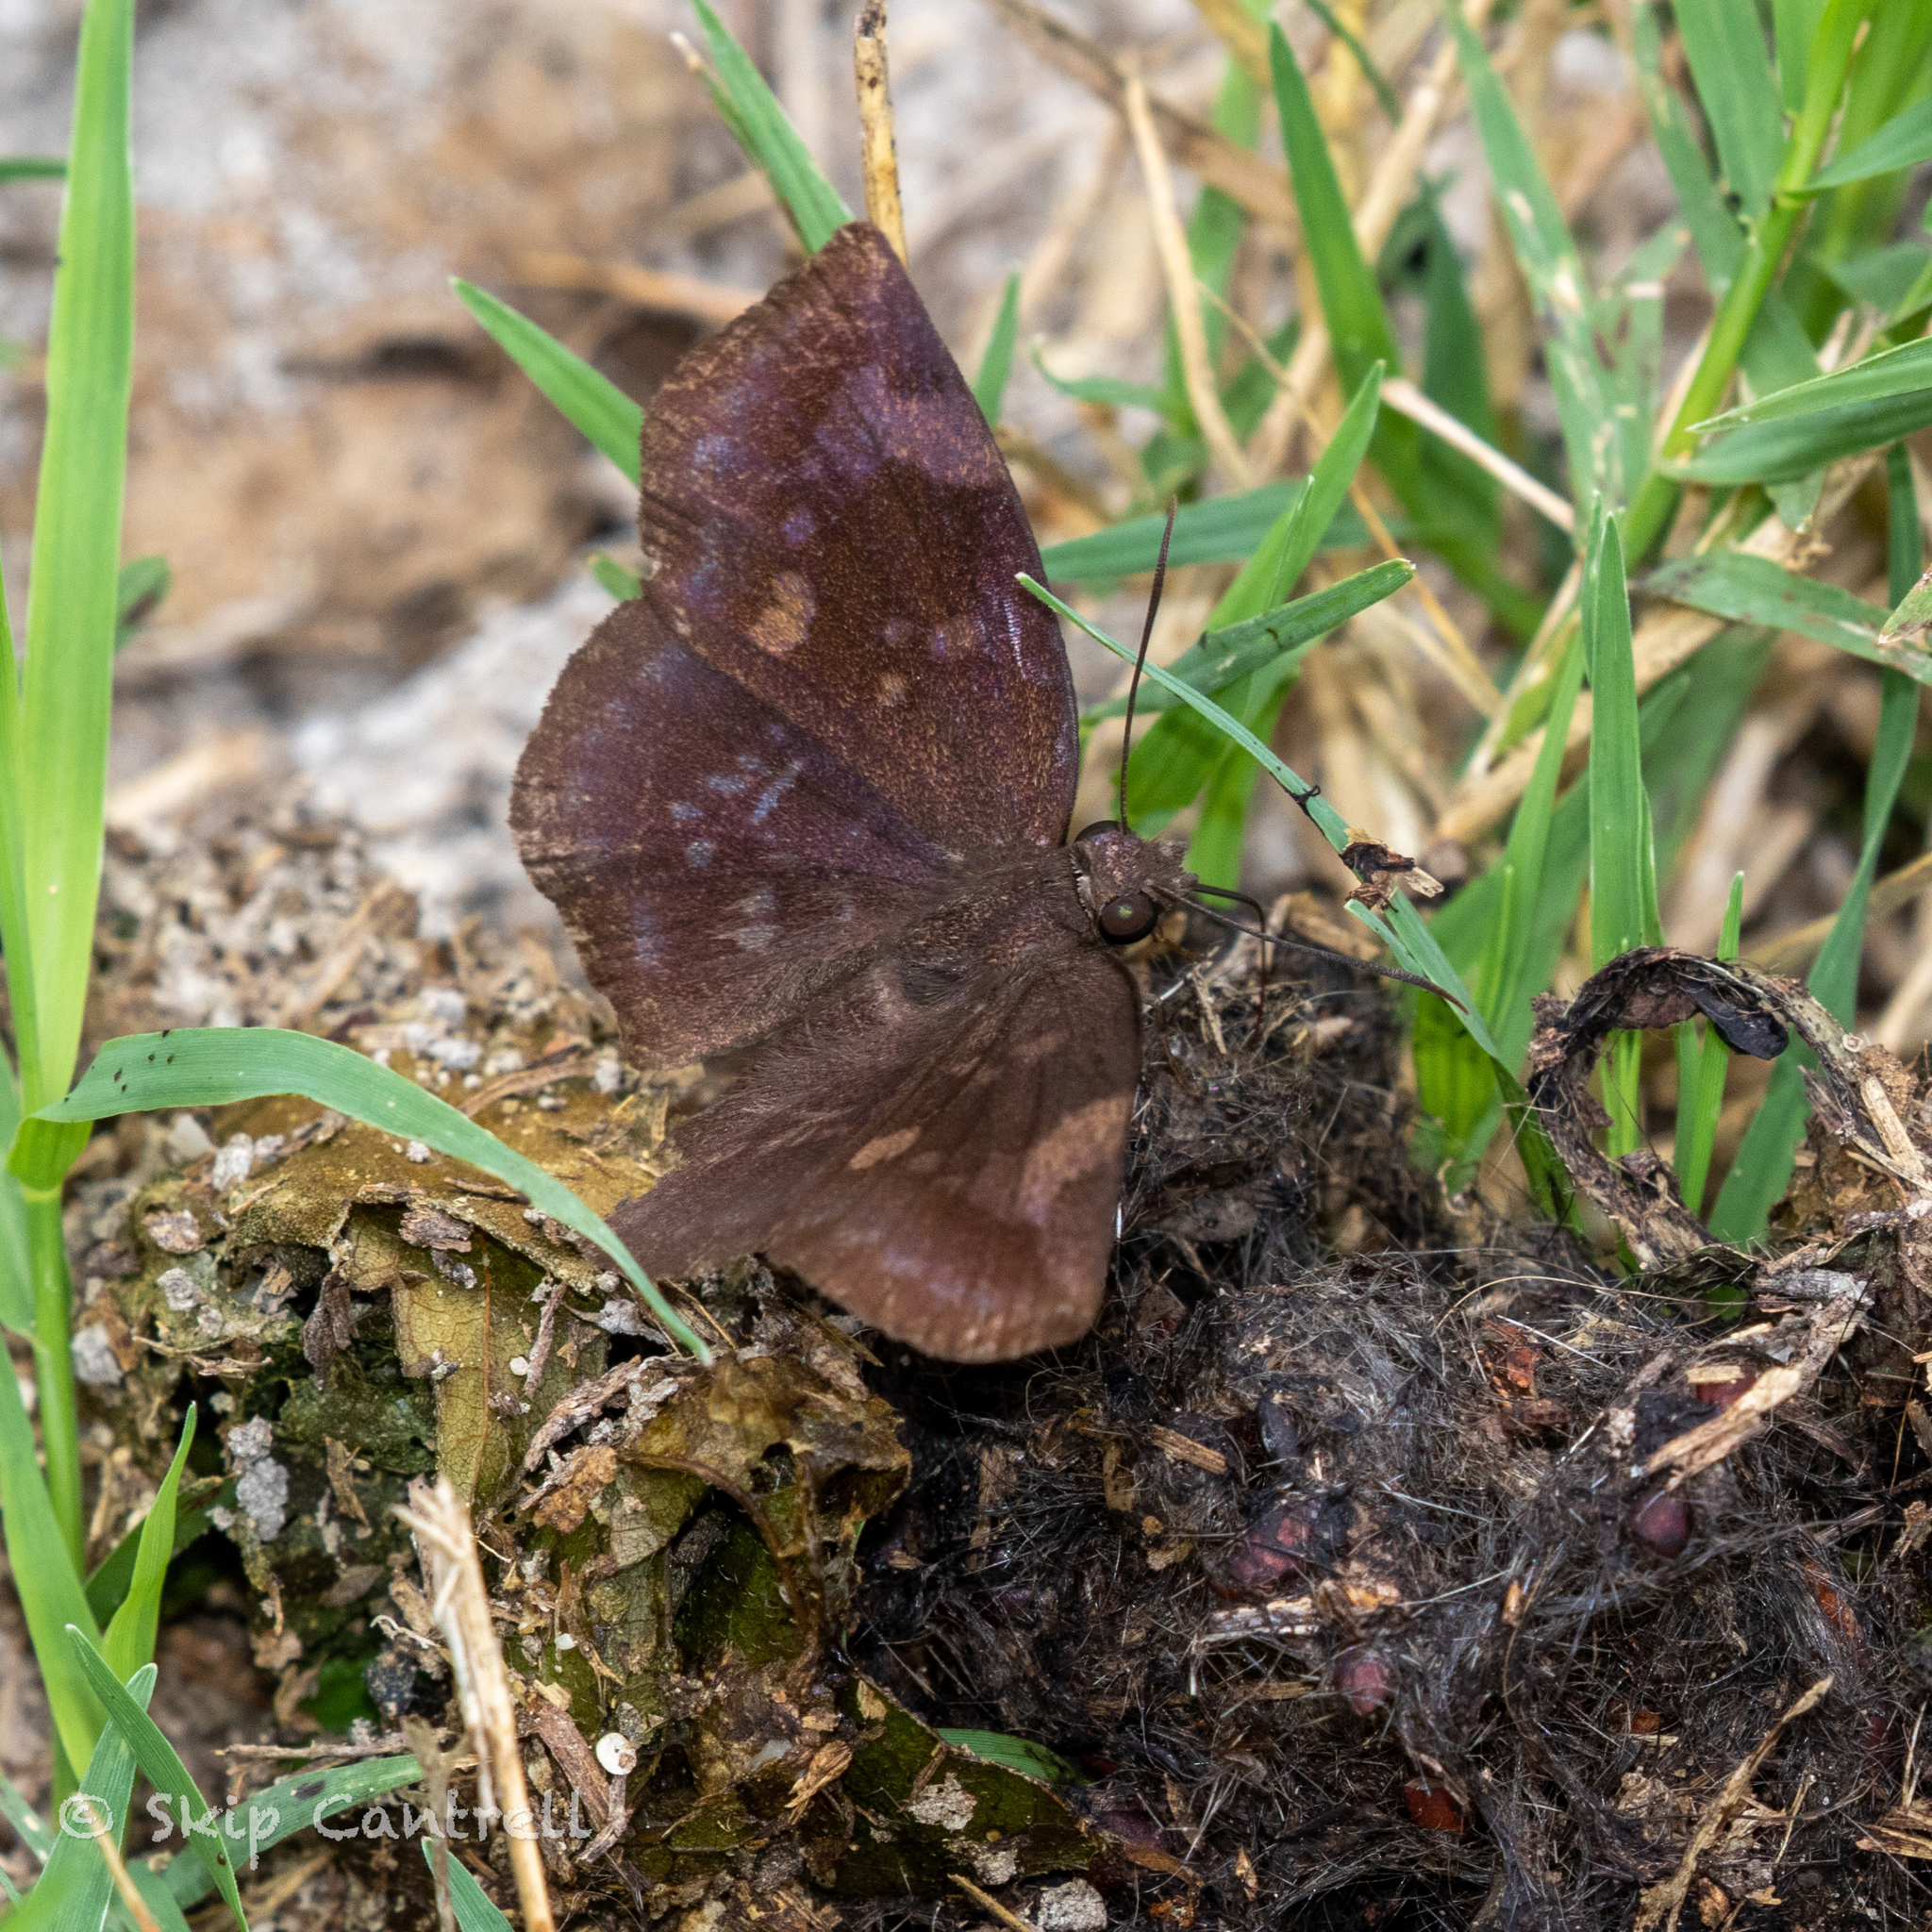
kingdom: Animalia
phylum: Arthropoda
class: Insecta
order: Lepidoptera
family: Hesperiidae
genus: Achlyodes
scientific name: Achlyodes thraso
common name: Sickle-winged skipper
